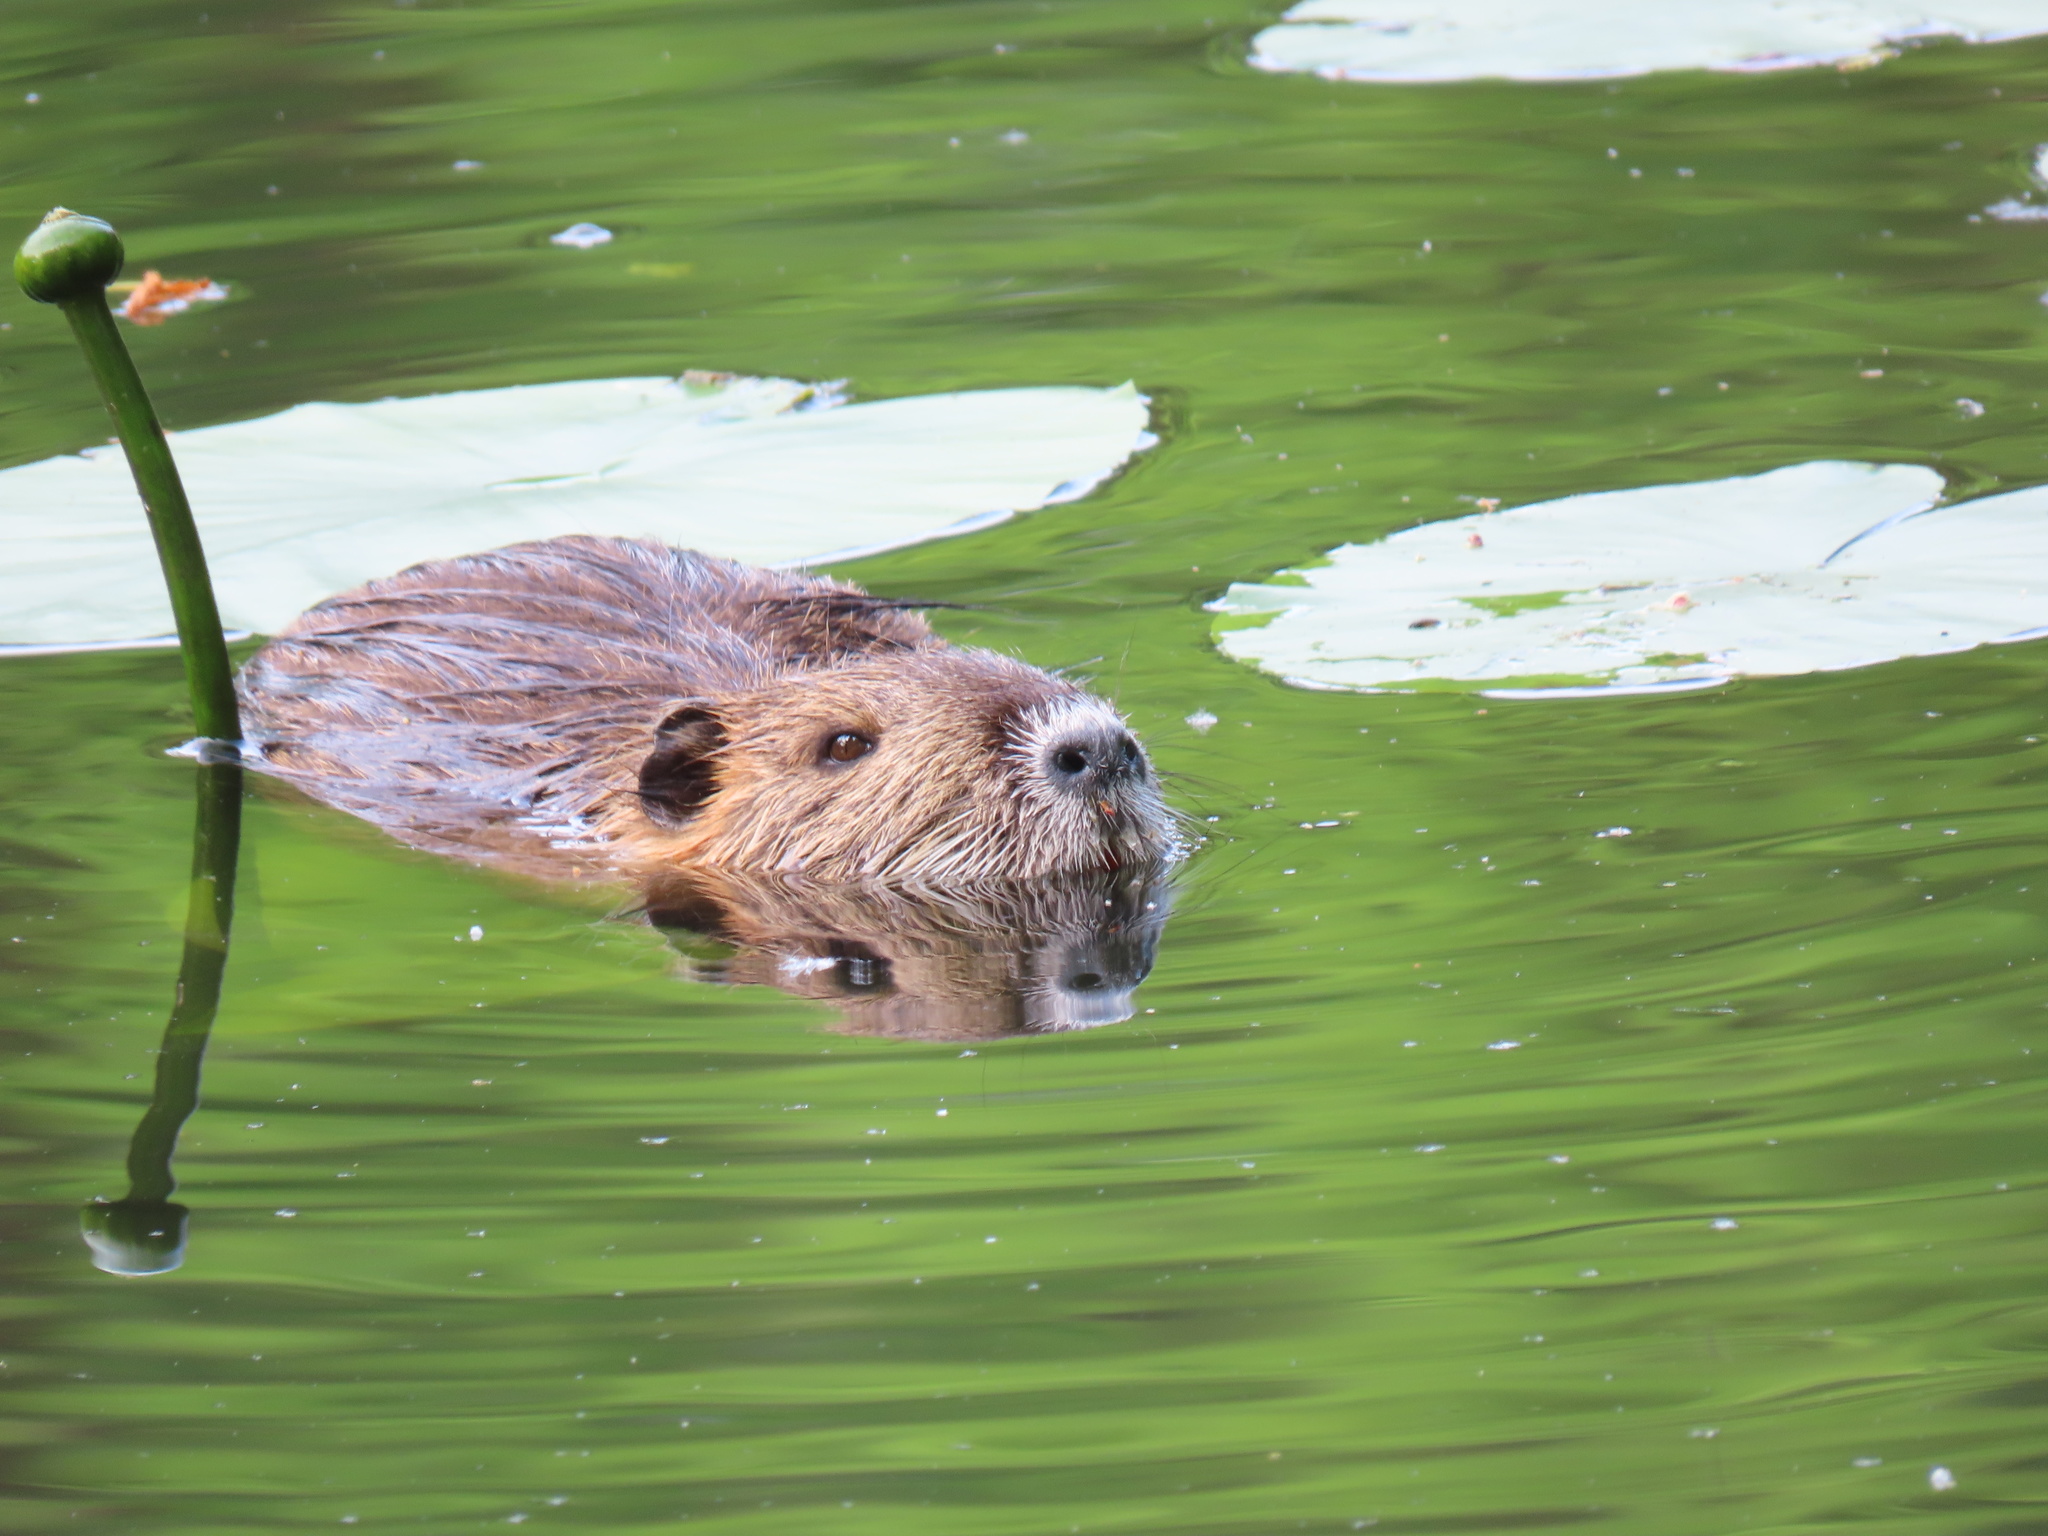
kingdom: Animalia
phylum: Chordata
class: Mammalia
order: Rodentia
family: Myocastoridae
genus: Myocastor
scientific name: Myocastor coypus
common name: Coypu
